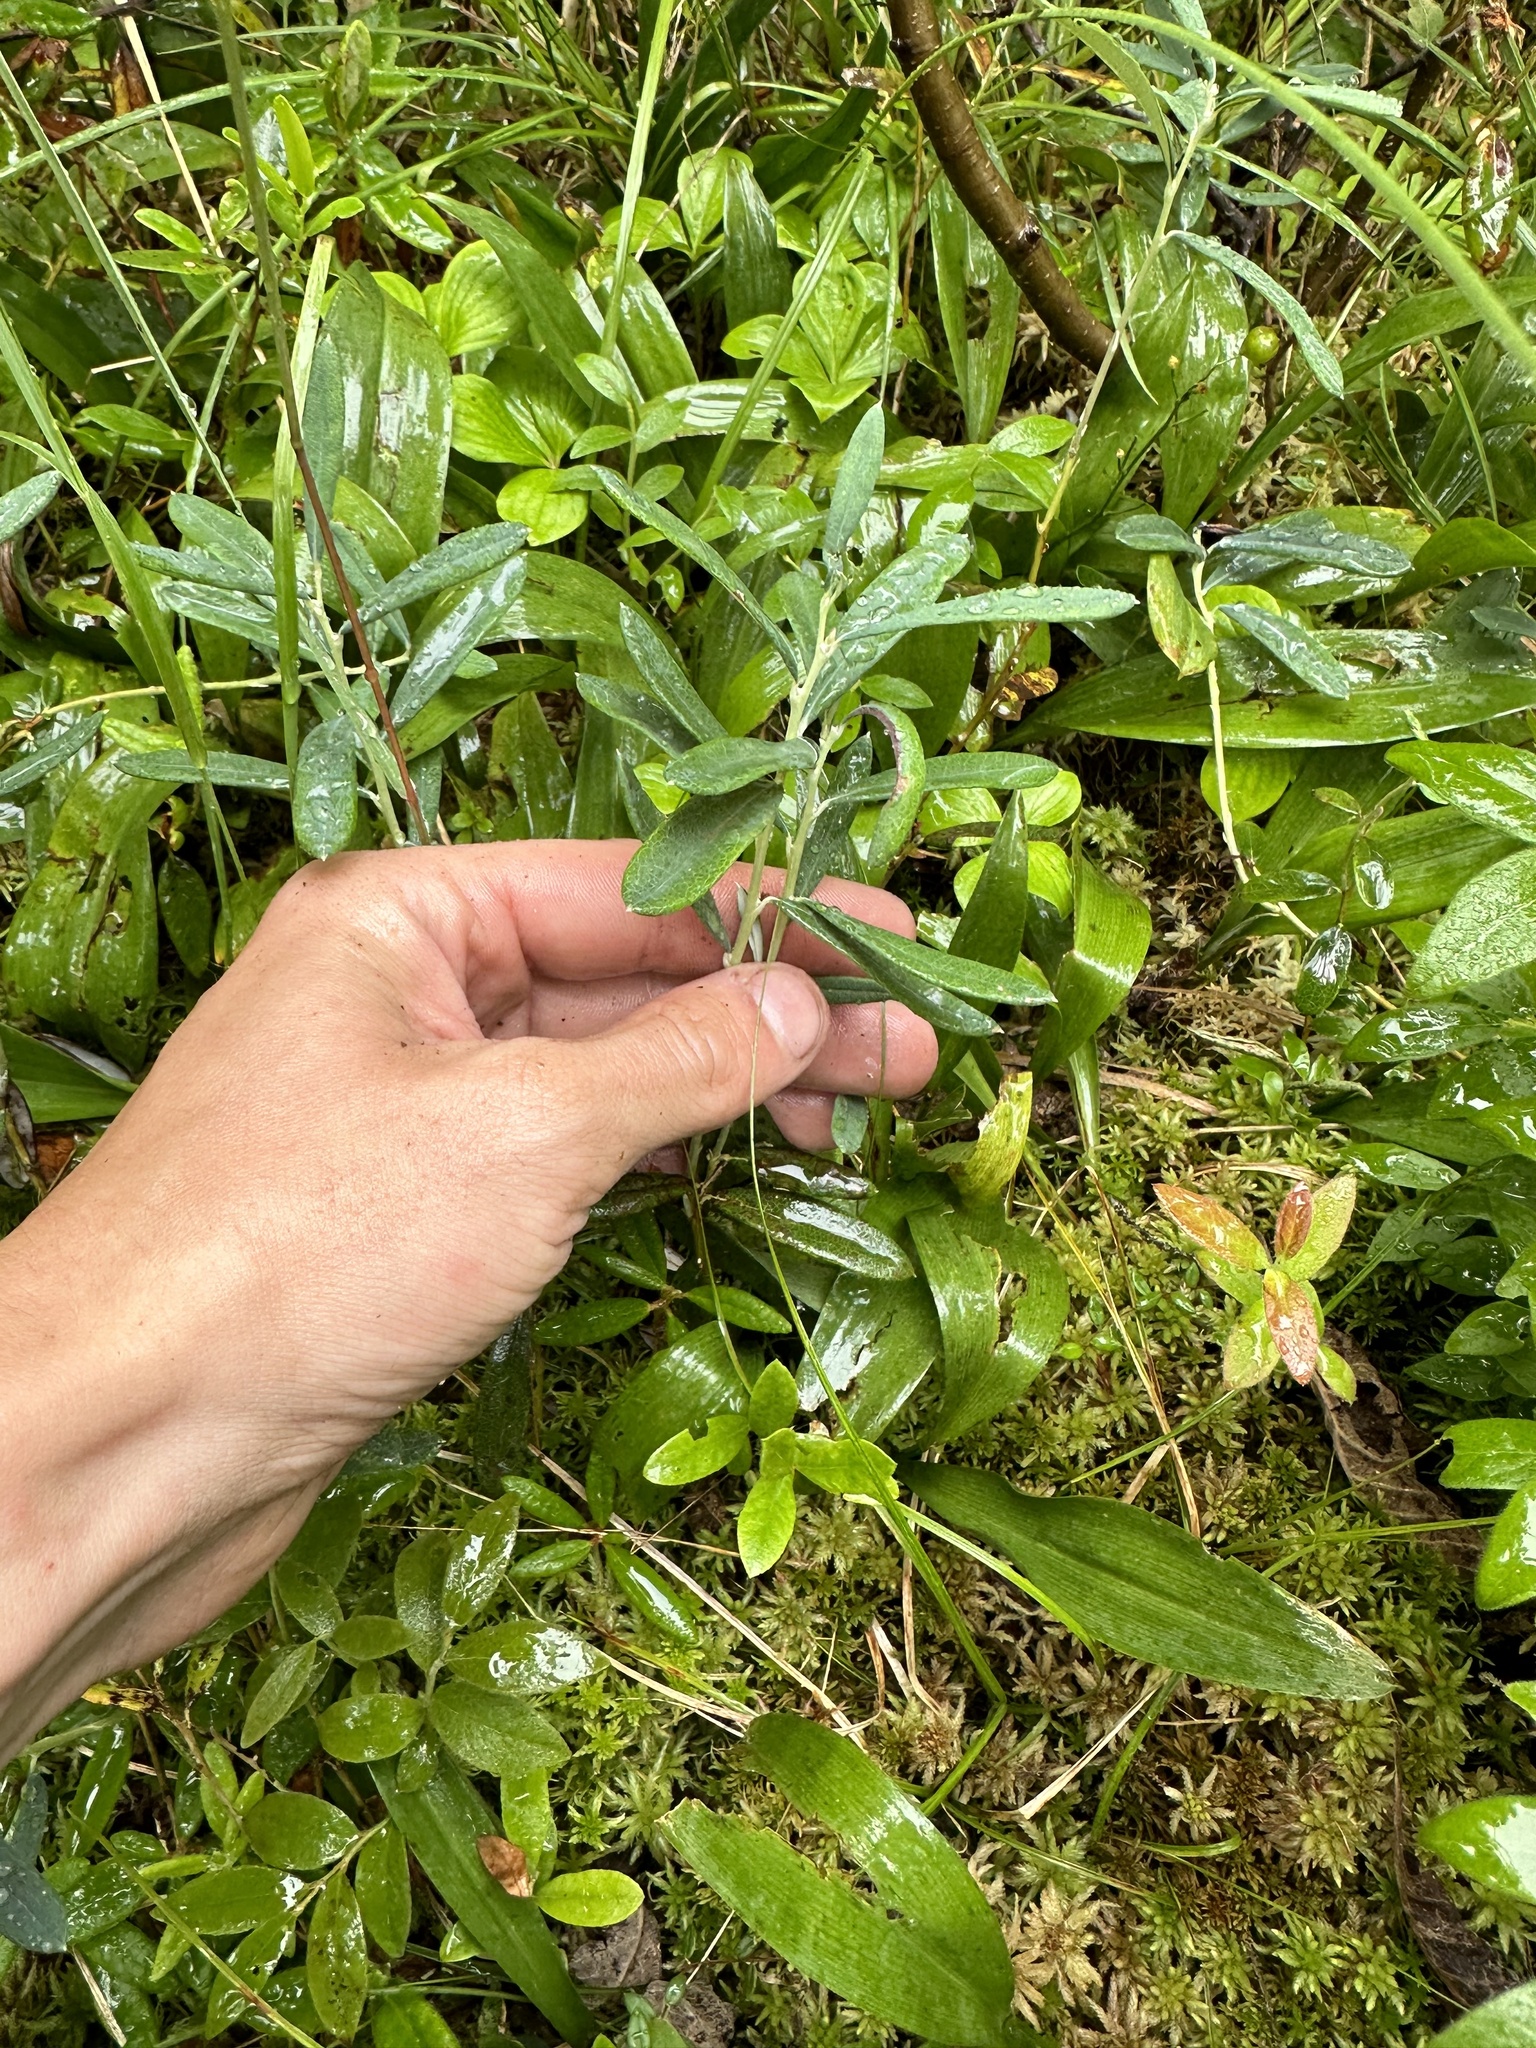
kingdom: Plantae
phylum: Tracheophyta
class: Magnoliopsida
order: Ericales
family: Ericaceae
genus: Andromeda
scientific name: Andromeda polifolia
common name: Bog-rosemary
